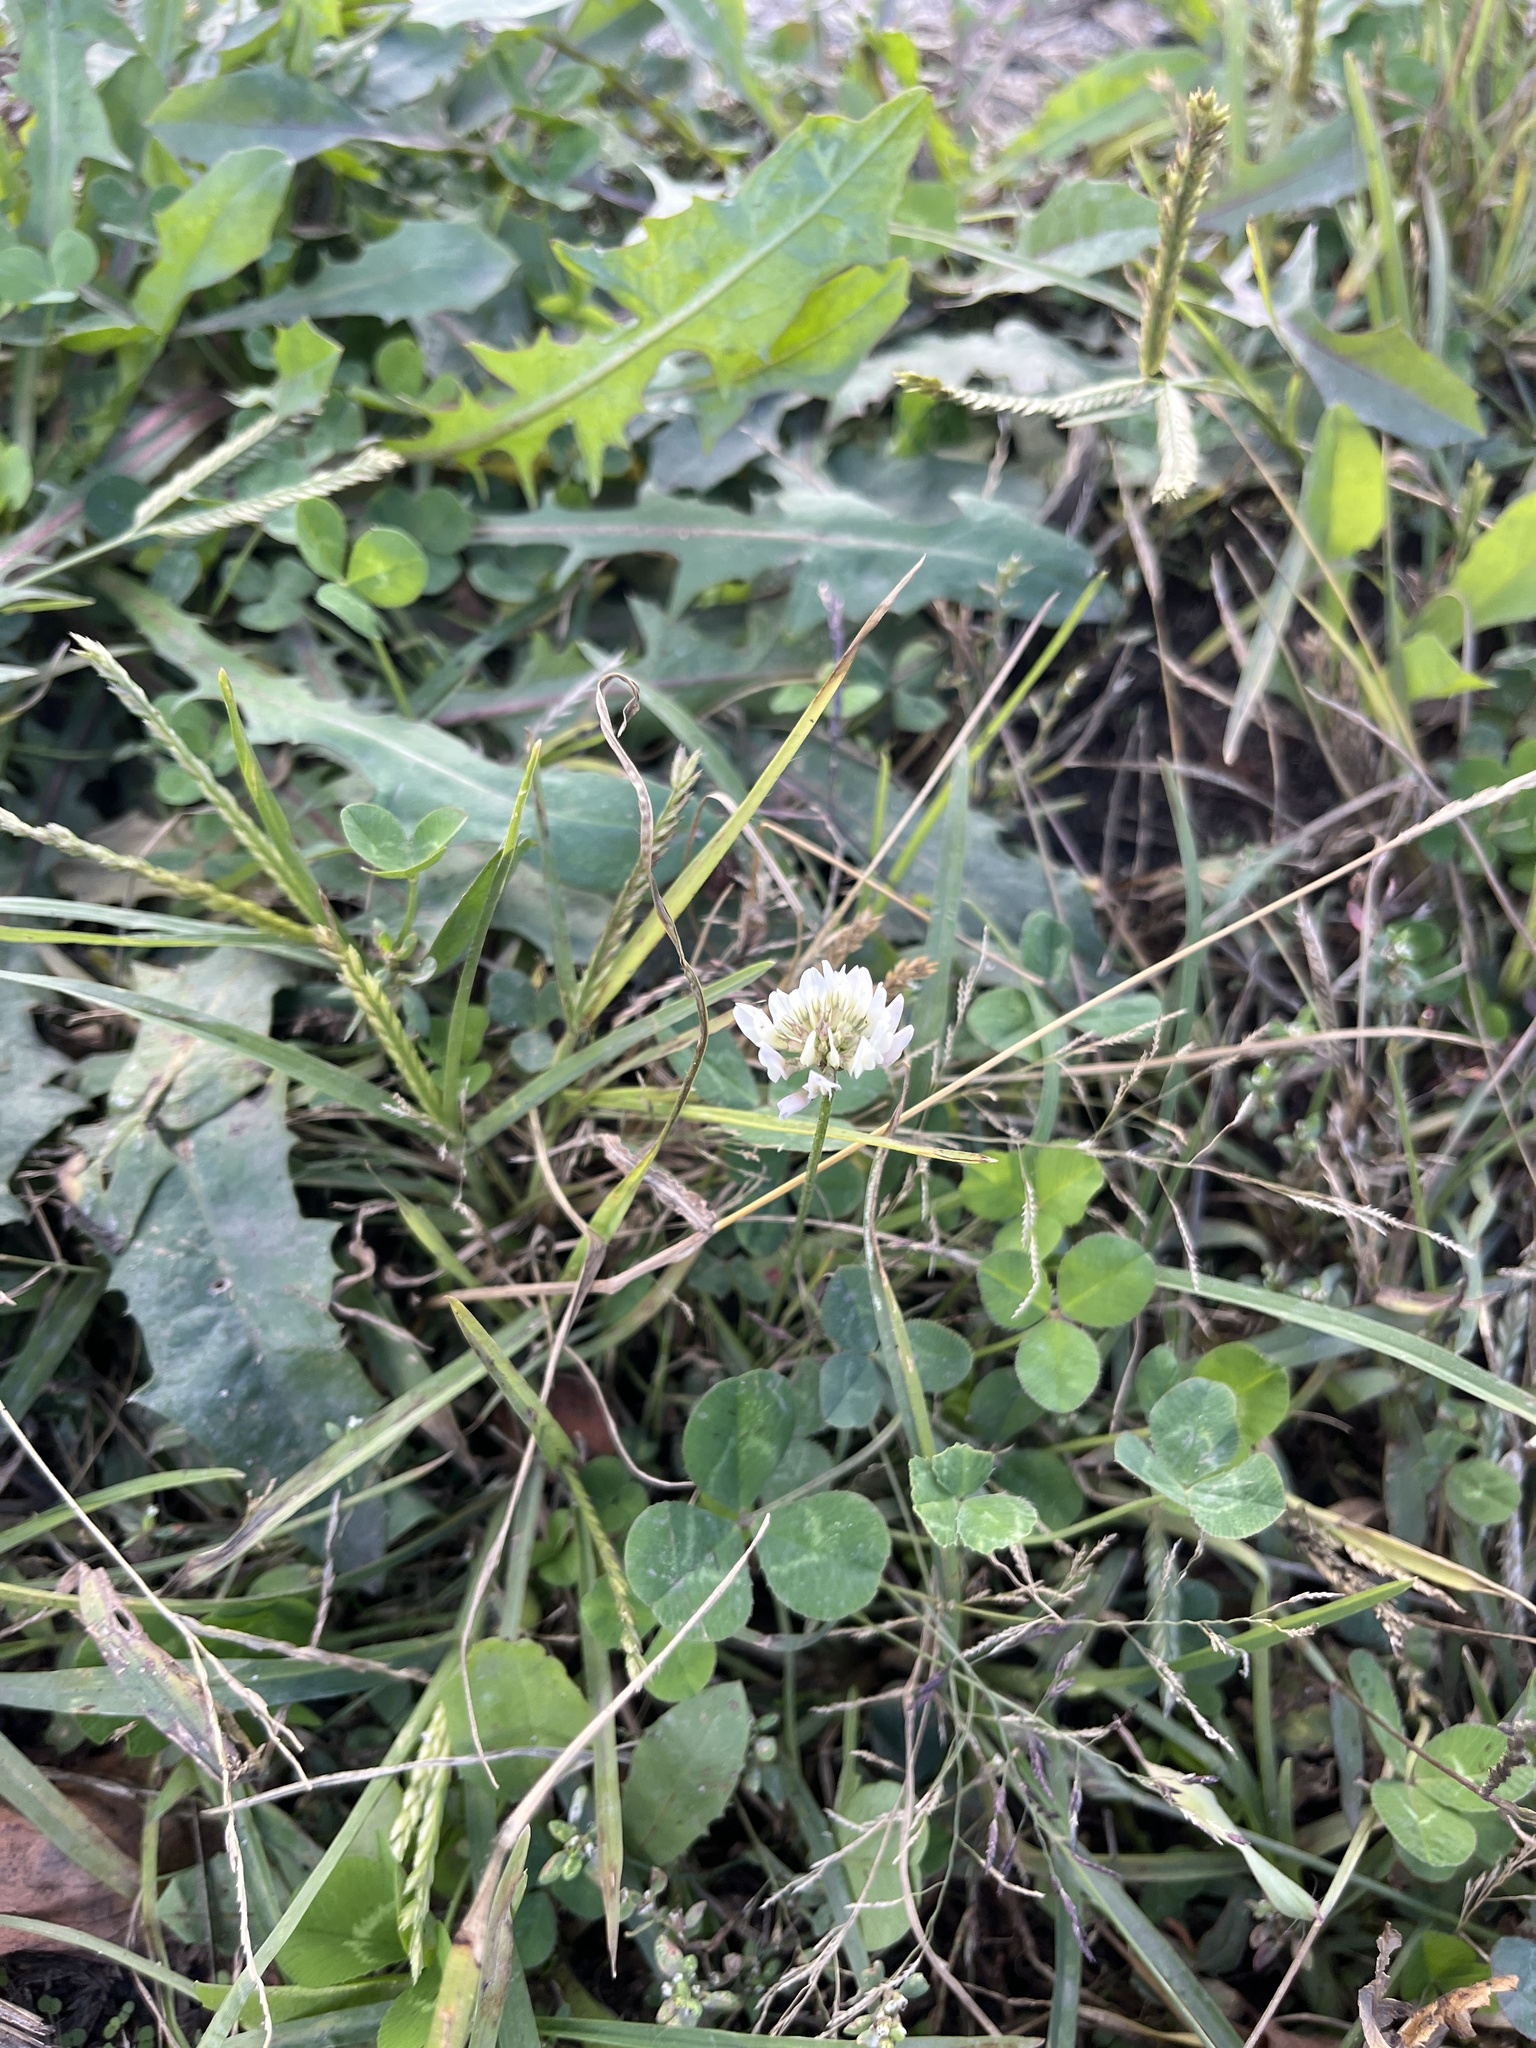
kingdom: Plantae
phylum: Tracheophyta
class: Magnoliopsida
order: Fabales
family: Fabaceae
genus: Trifolium
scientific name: Trifolium repens
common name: White clover
